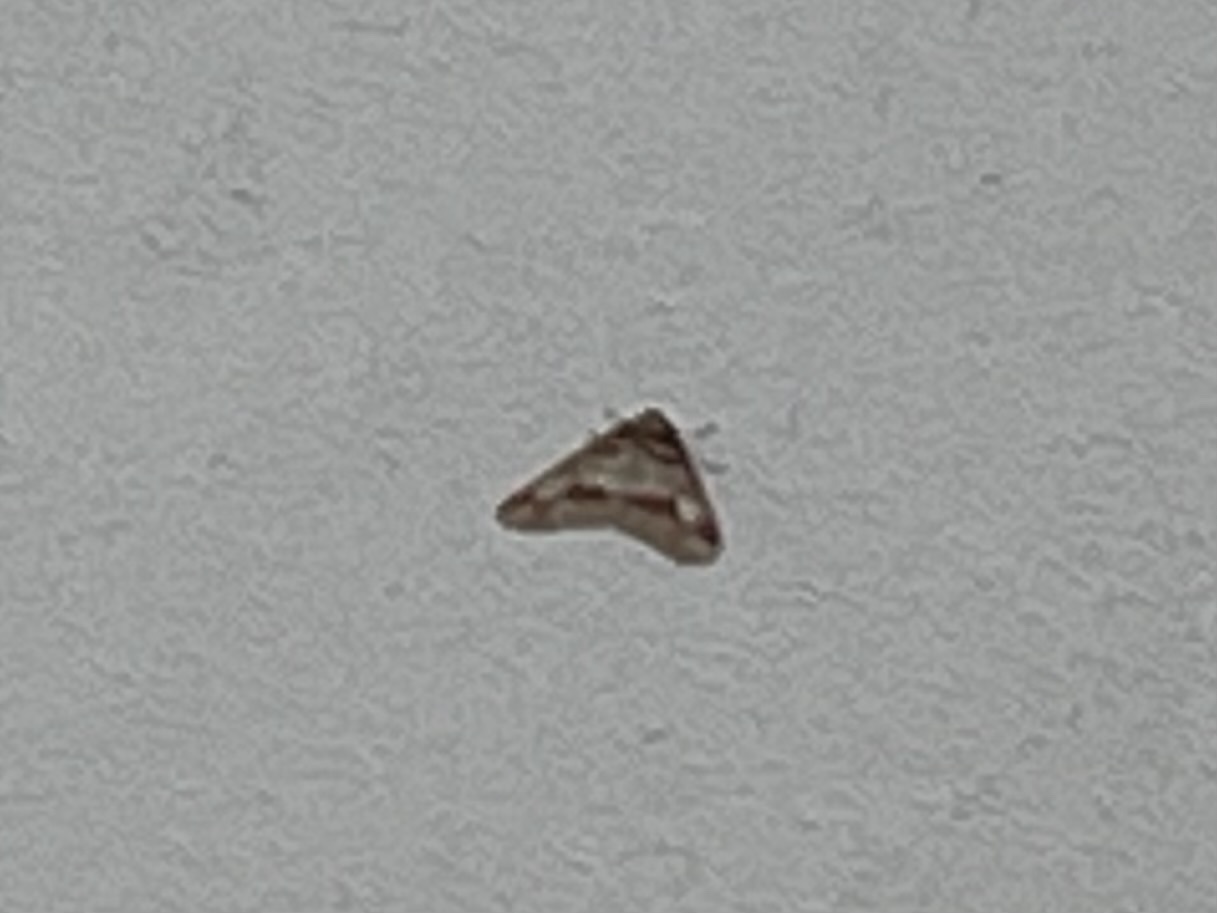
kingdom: Animalia
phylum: Arthropoda
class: Insecta
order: Lepidoptera
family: Geometridae
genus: Erannis
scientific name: Erannis defoliaria
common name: Mottled umber
